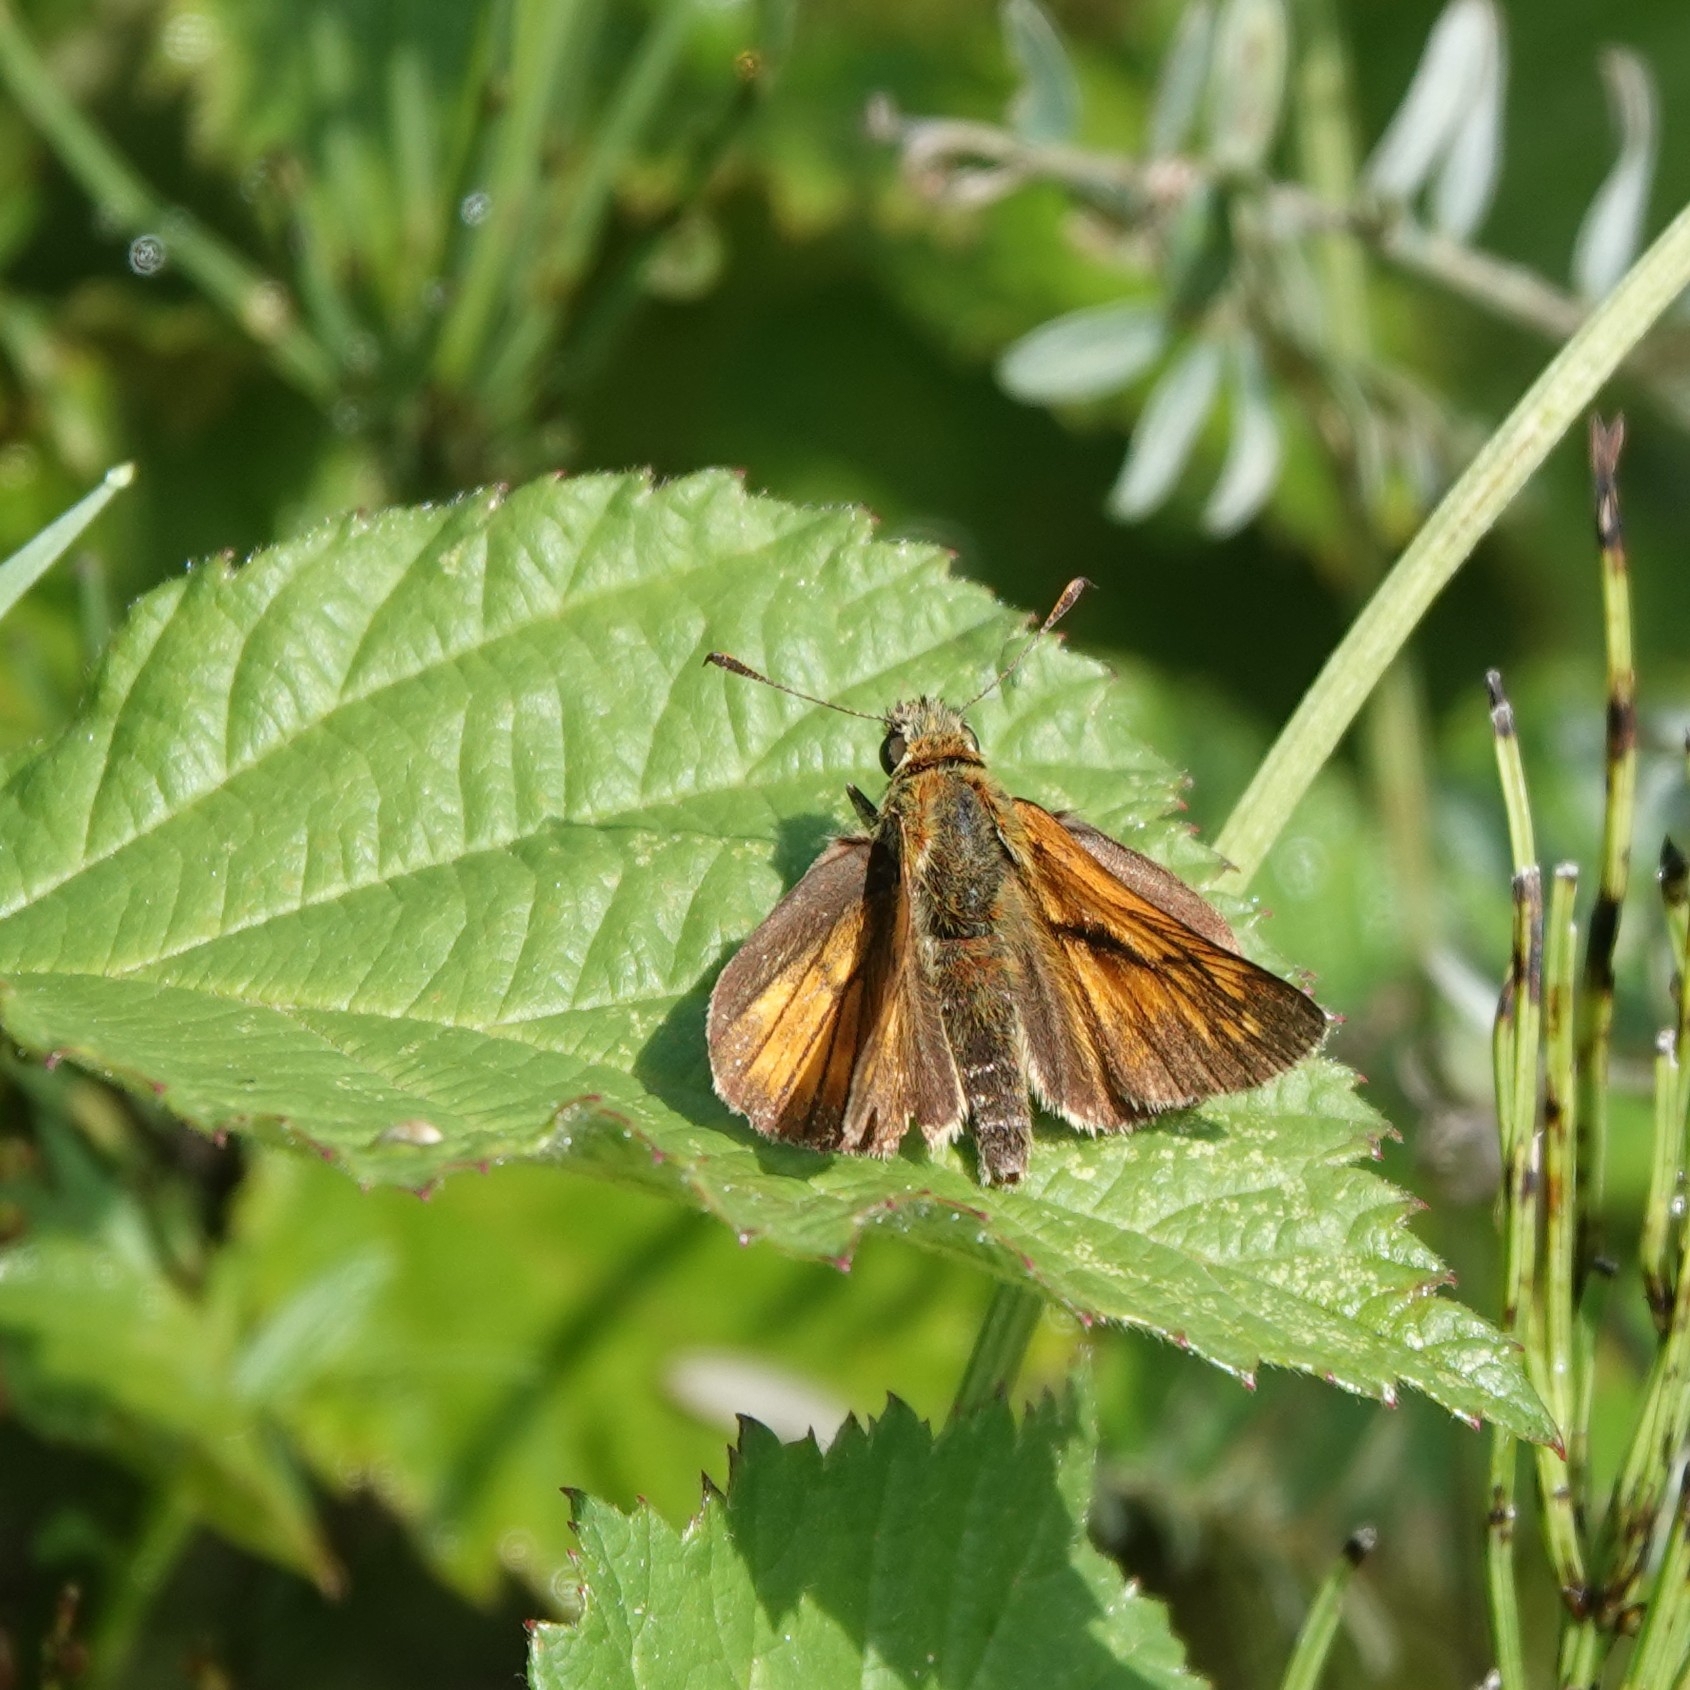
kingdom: Animalia
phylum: Arthropoda
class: Insecta
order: Lepidoptera
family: Hesperiidae
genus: Ochlodes
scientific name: Ochlodes venata
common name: Large skipper
